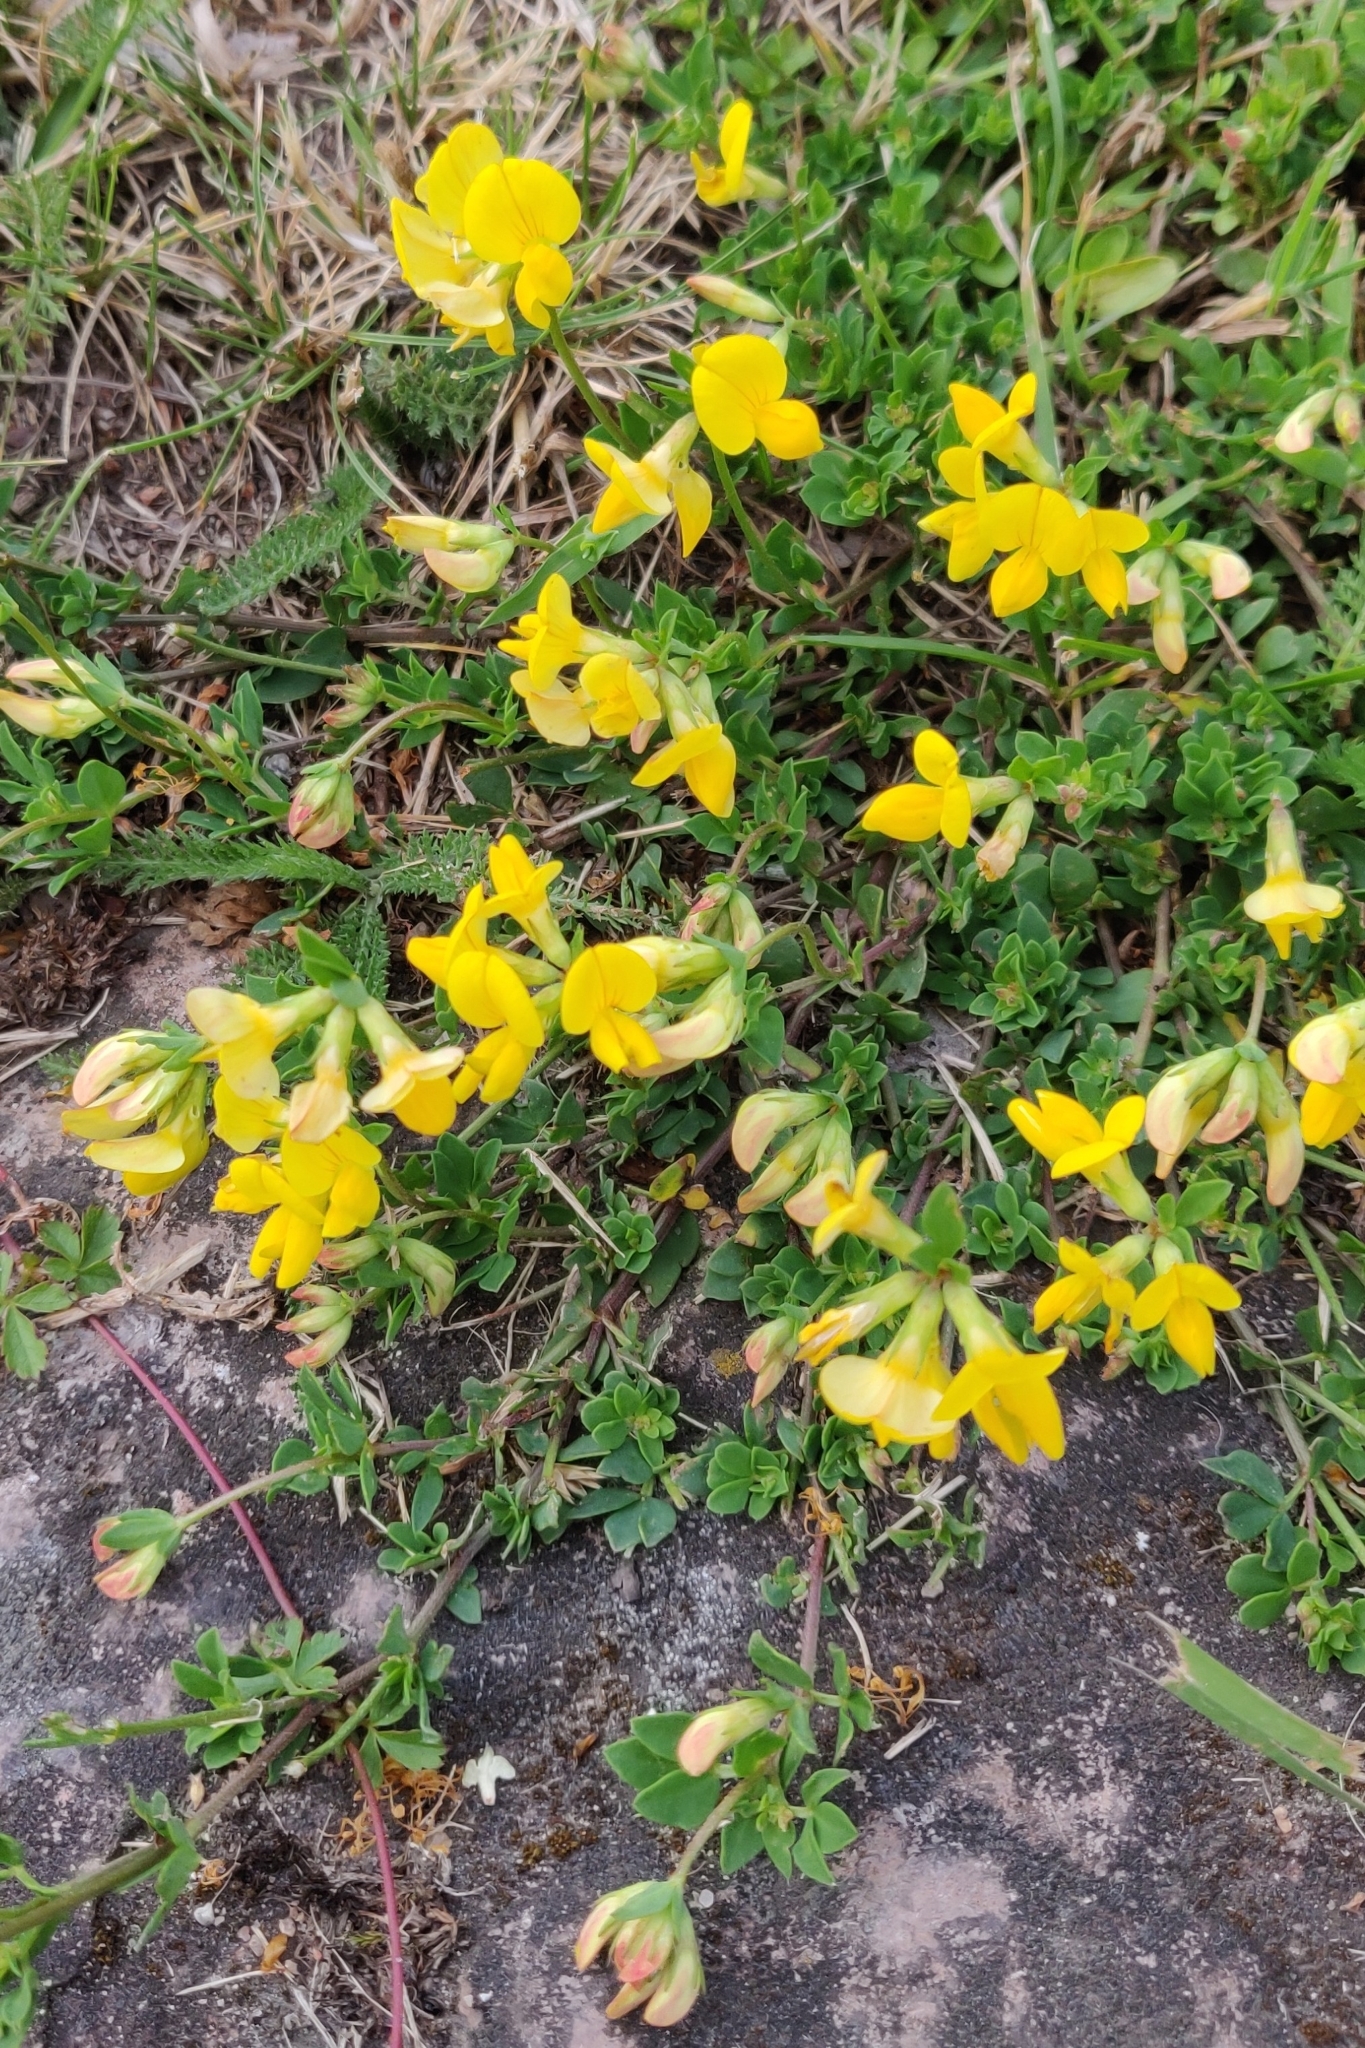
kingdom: Plantae
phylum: Tracheophyta
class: Magnoliopsida
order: Fabales
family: Fabaceae
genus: Lotus
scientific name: Lotus corniculatus
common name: Common bird's-foot-trefoil
